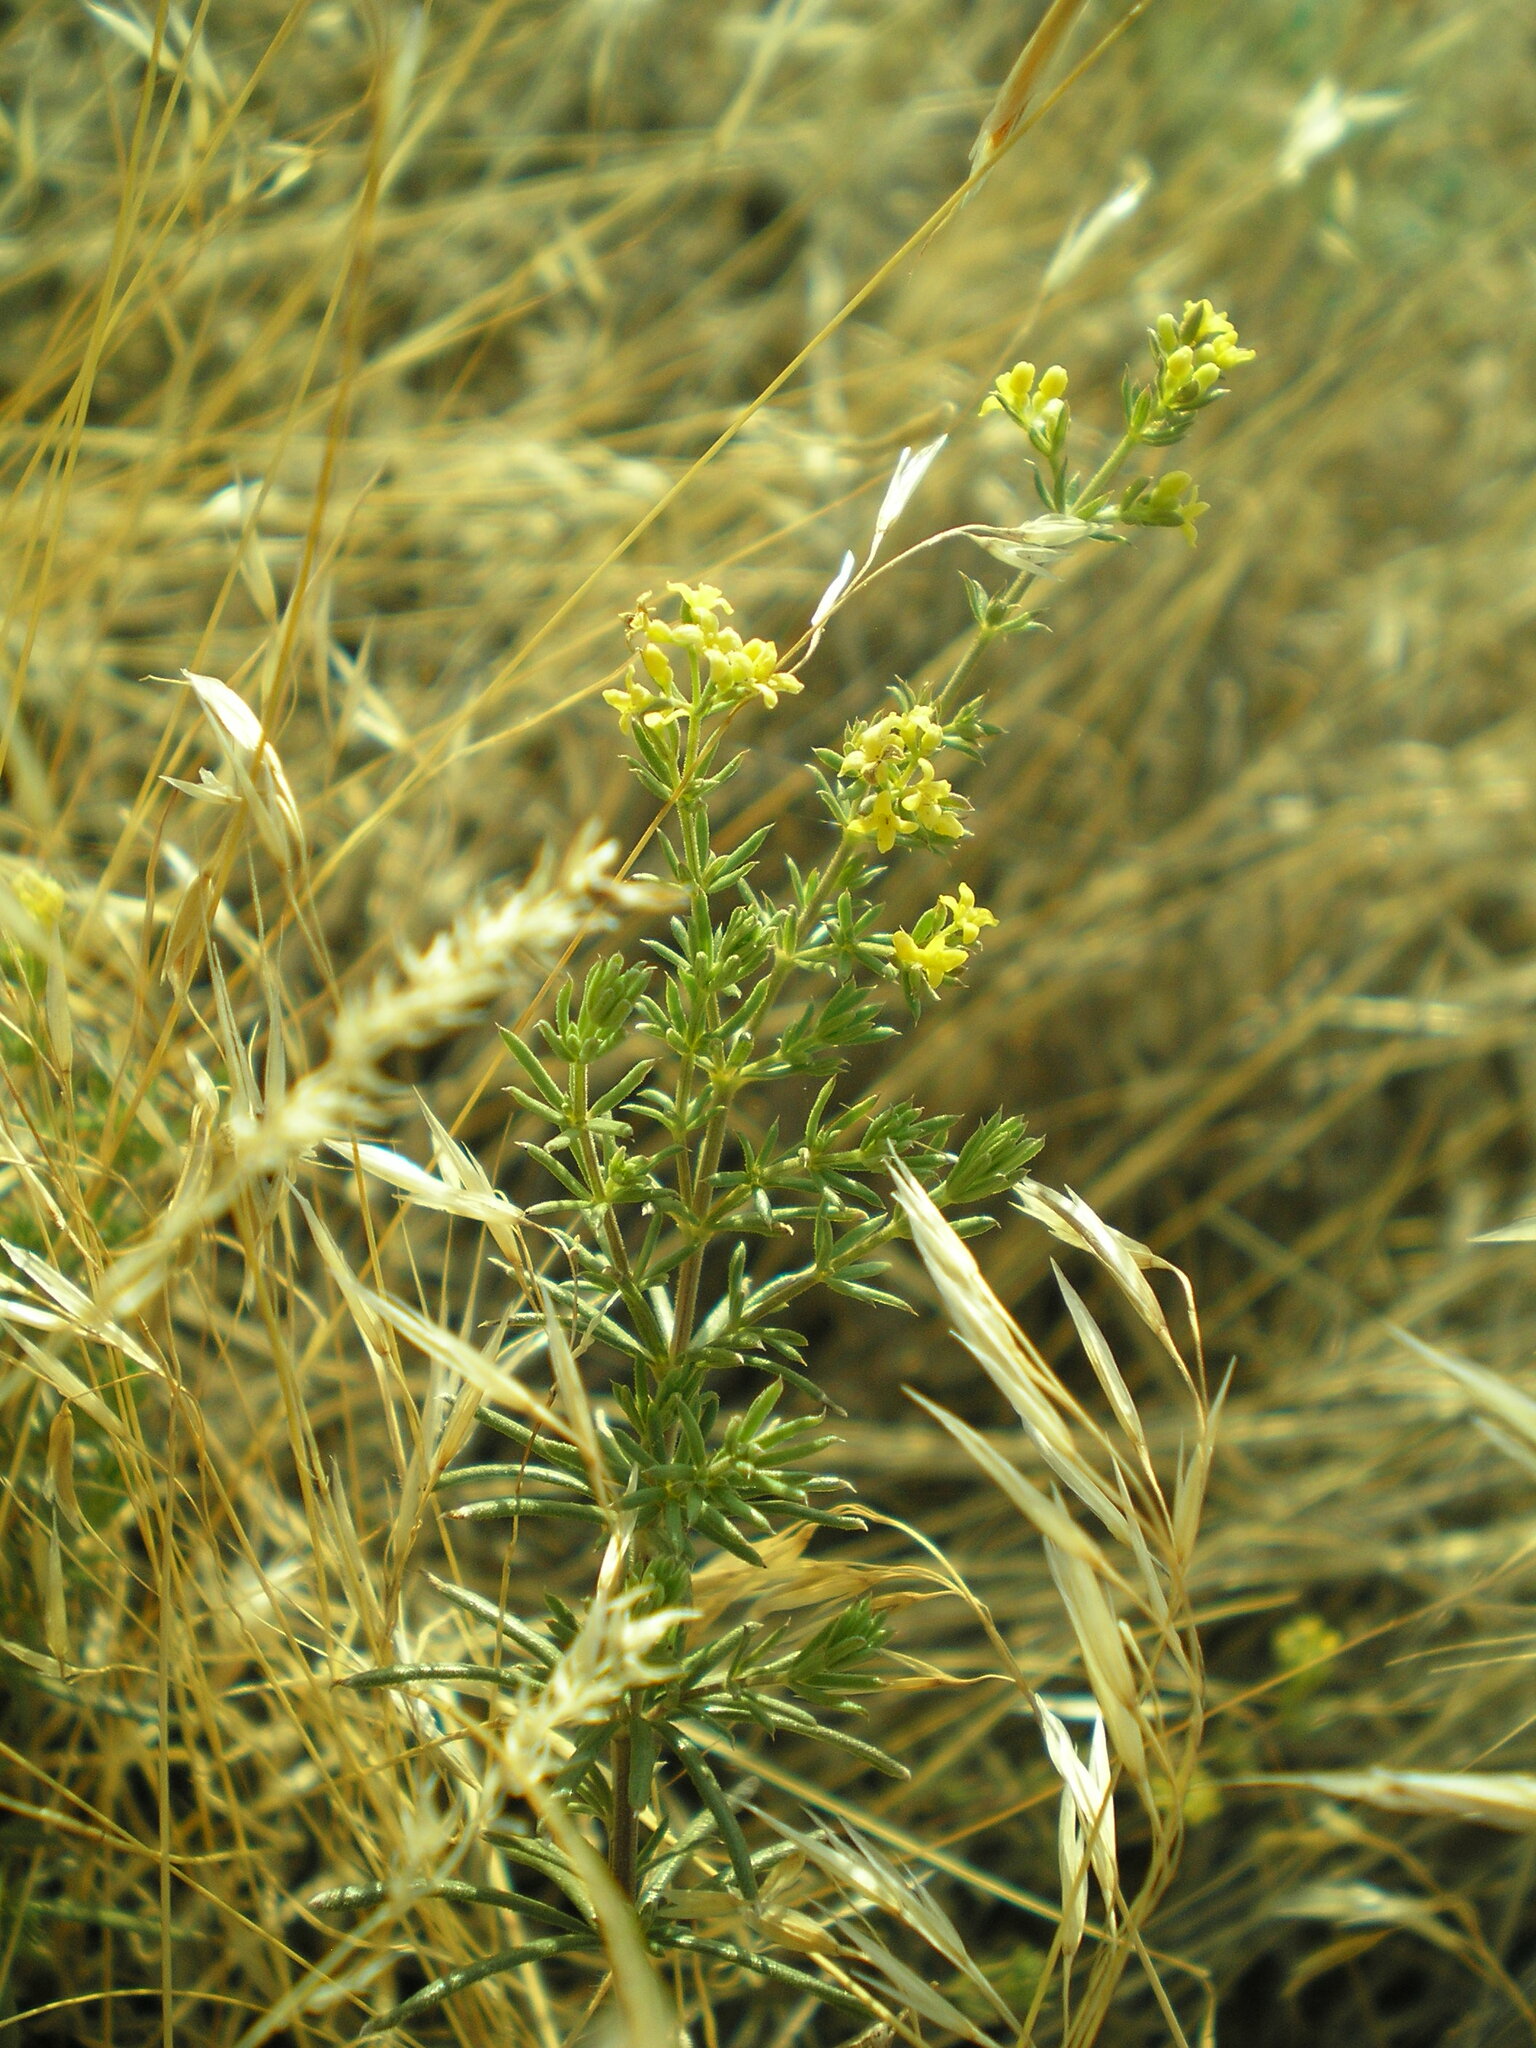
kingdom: Plantae
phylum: Tracheophyta
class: Magnoliopsida
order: Gentianales
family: Rubiaceae
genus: Galium
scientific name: Galium verum
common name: Lady's bedstraw
